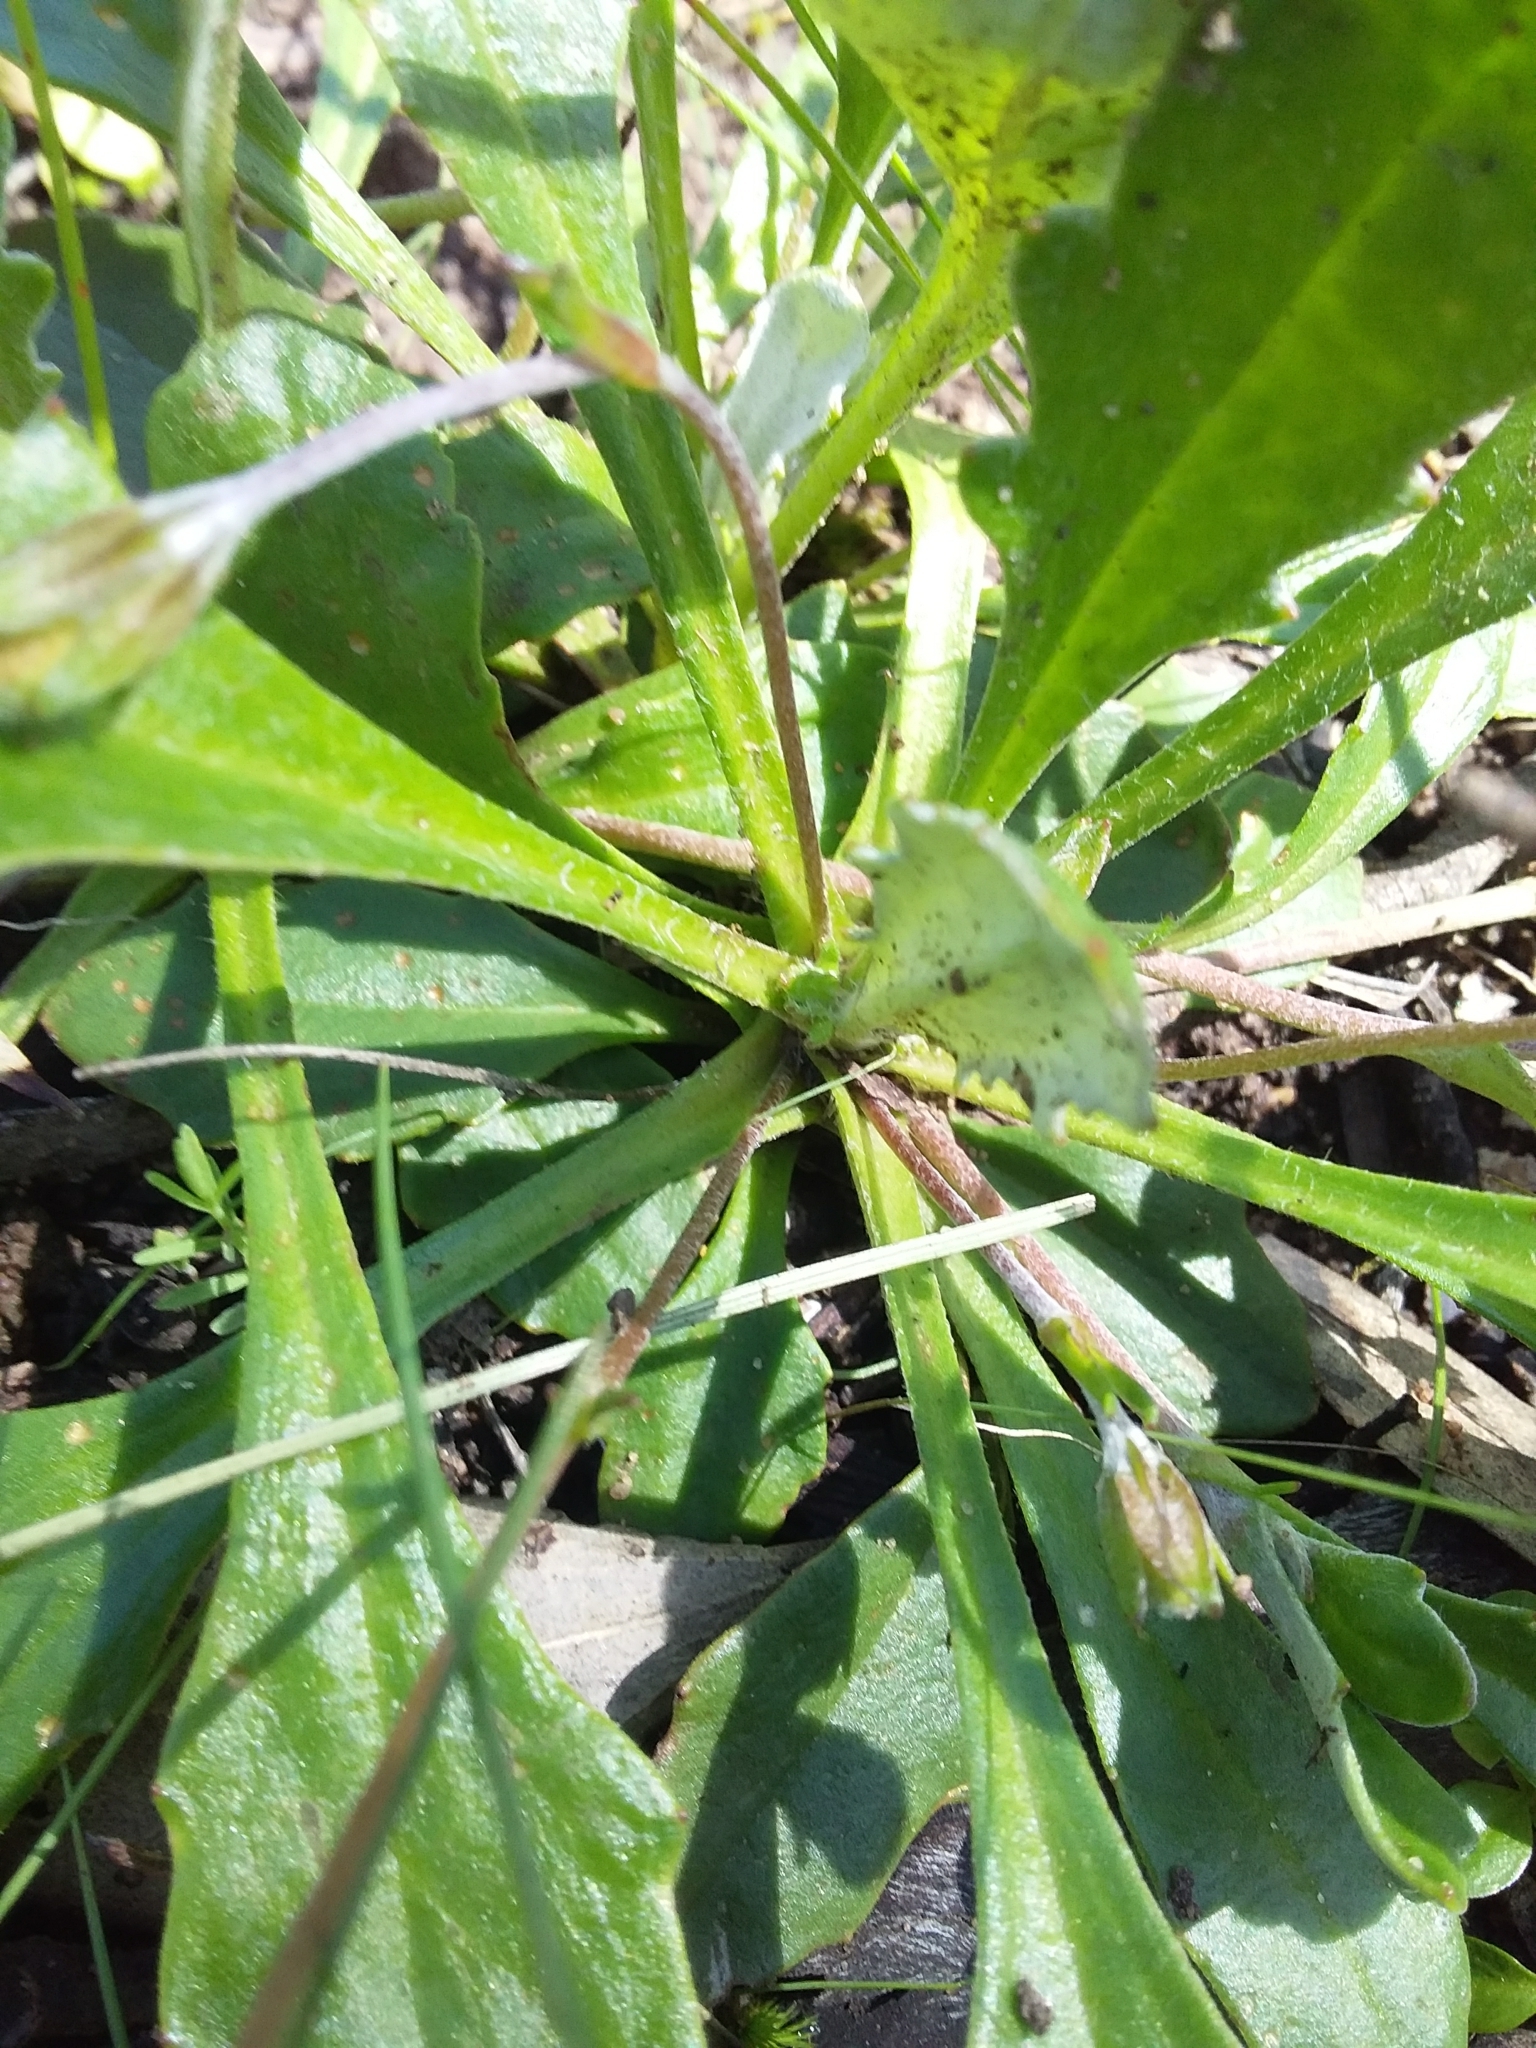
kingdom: Plantae
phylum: Tracheophyta
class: Magnoliopsida
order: Asterales
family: Goodeniaceae
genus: Goodenia
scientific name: Goodenia blackiana
